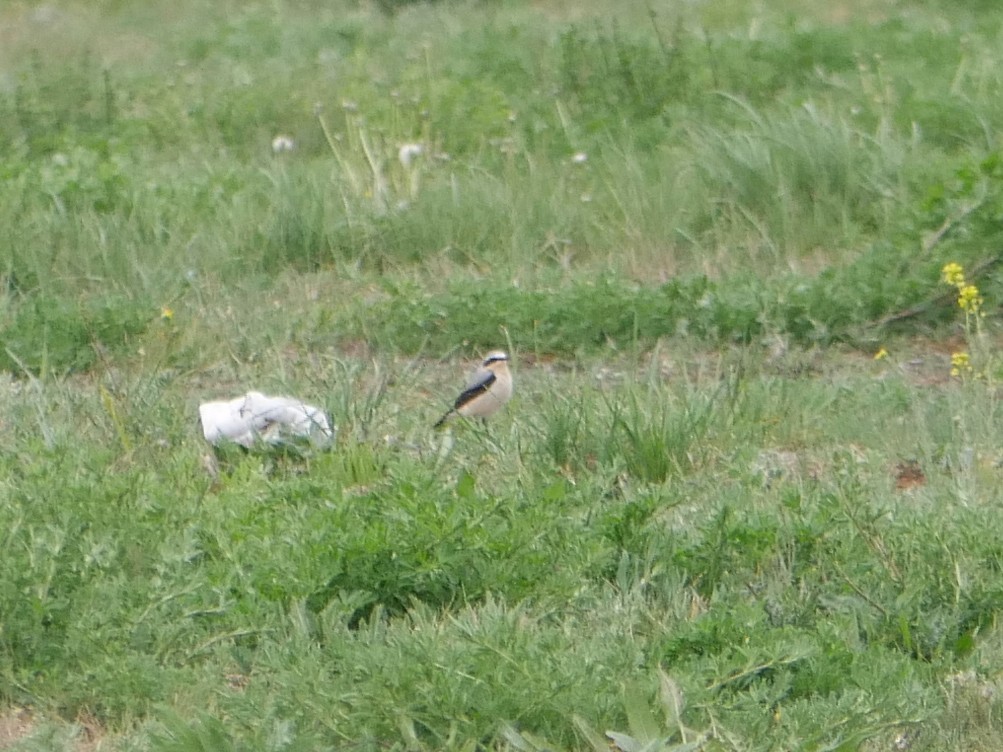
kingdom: Animalia
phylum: Chordata
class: Aves
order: Passeriformes
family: Muscicapidae
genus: Oenanthe
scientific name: Oenanthe oenanthe
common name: Northern wheatear
